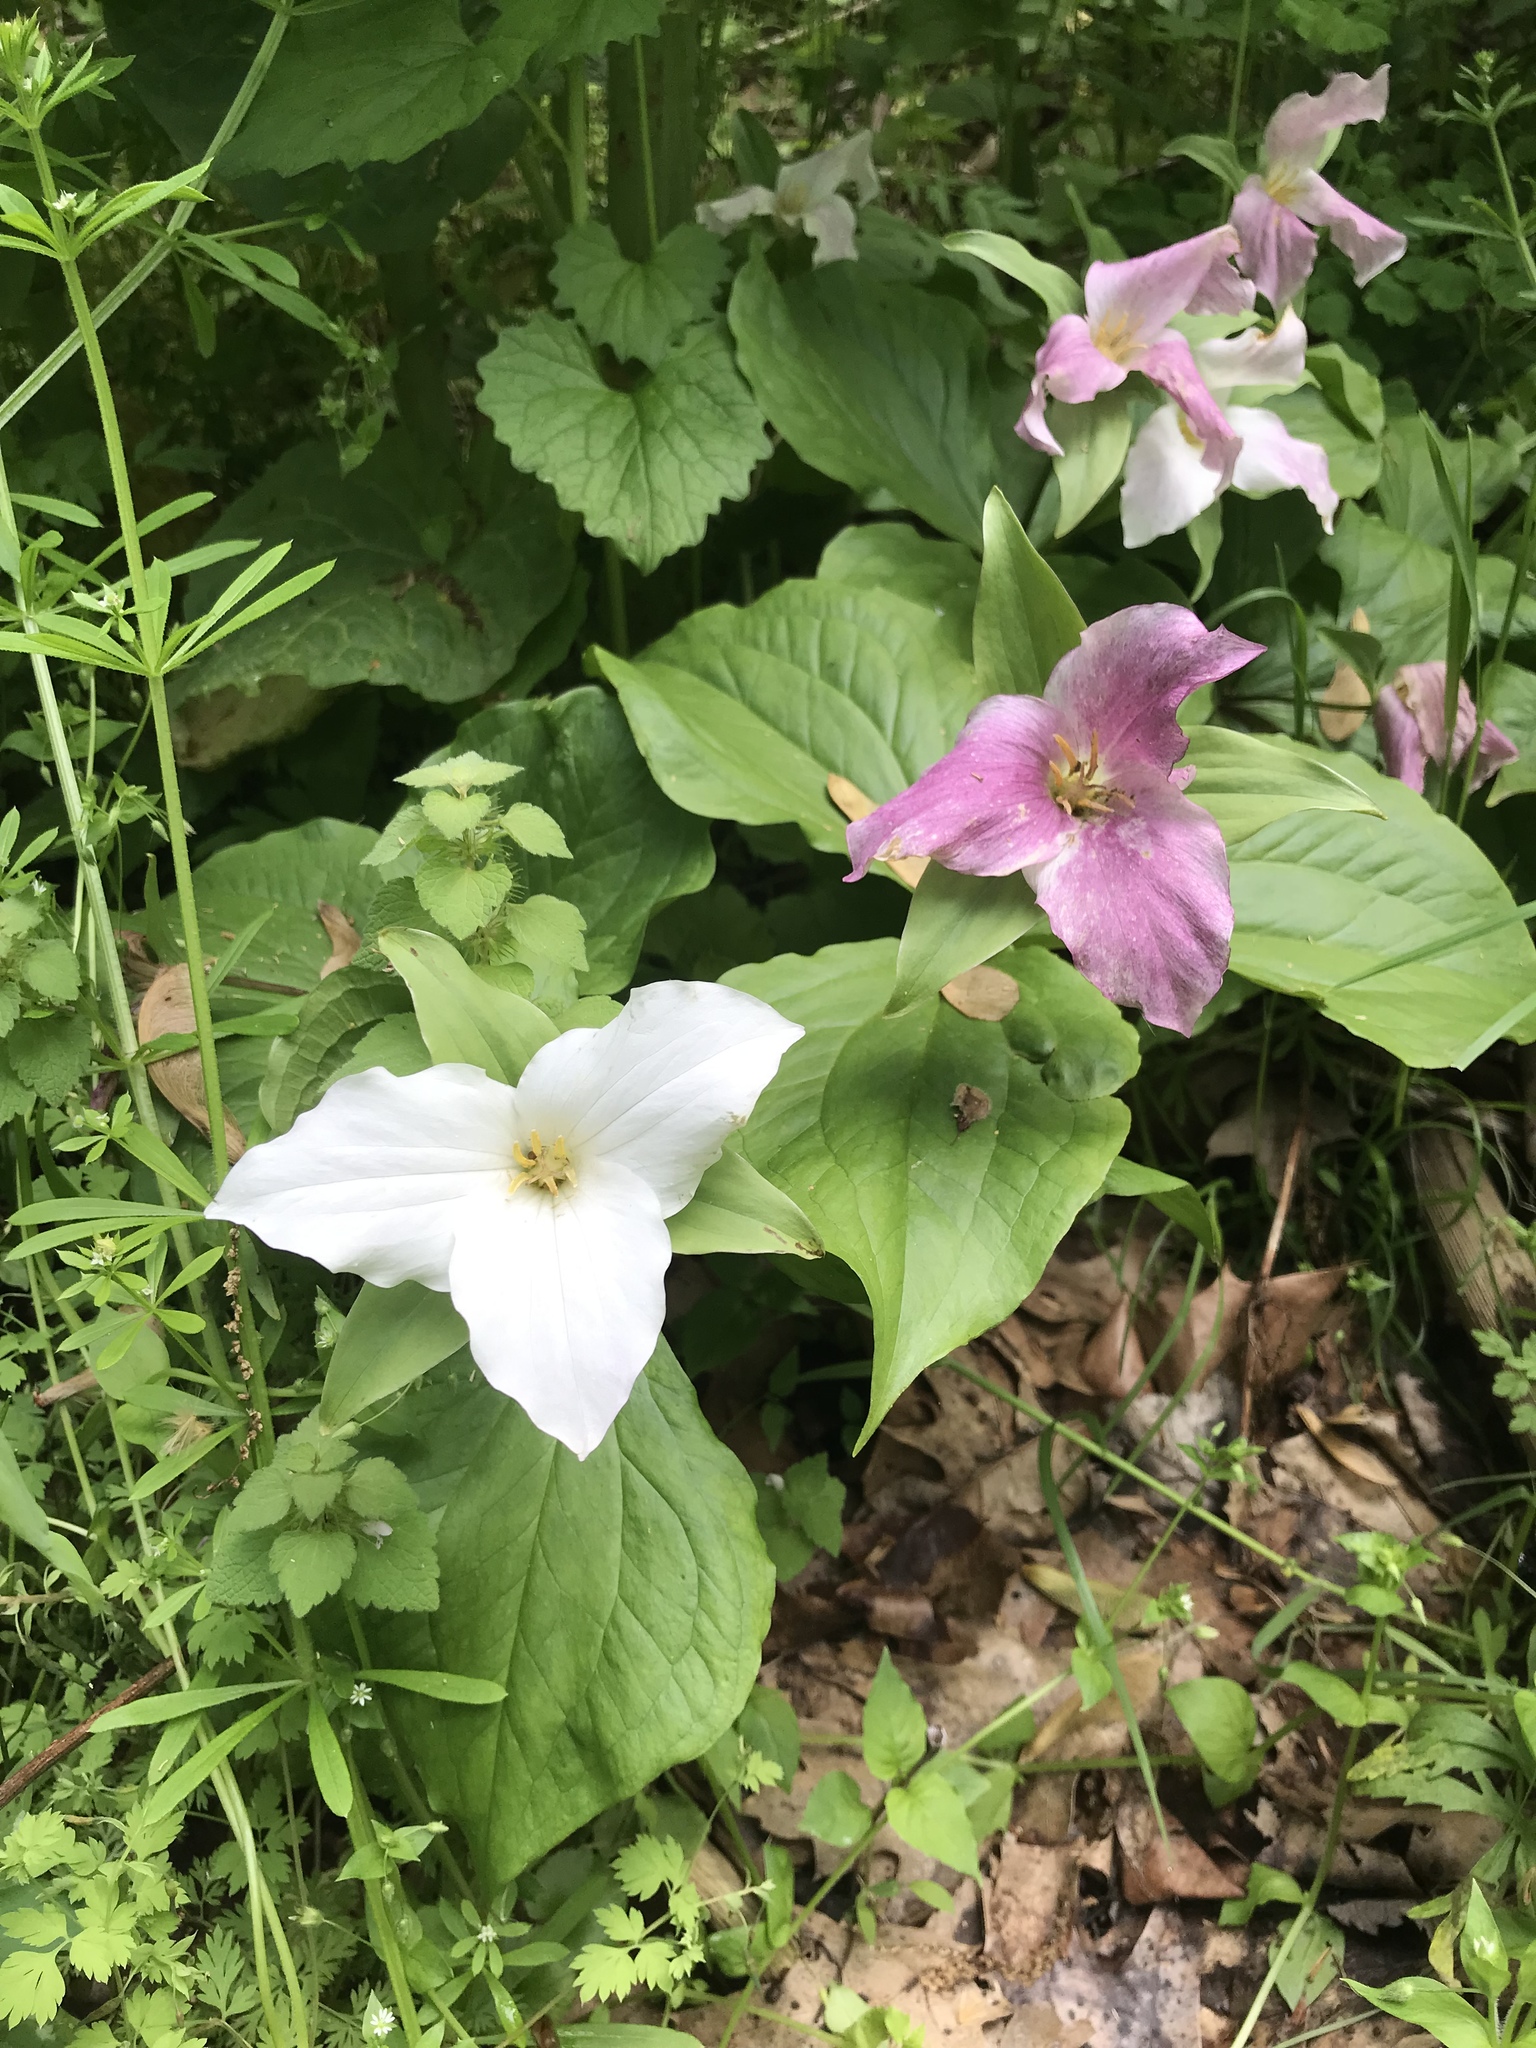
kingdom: Plantae
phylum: Tracheophyta
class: Liliopsida
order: Liliales
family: Melanthiaceae
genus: Trillium
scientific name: Trillium grandiflorum
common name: Great white trillium
